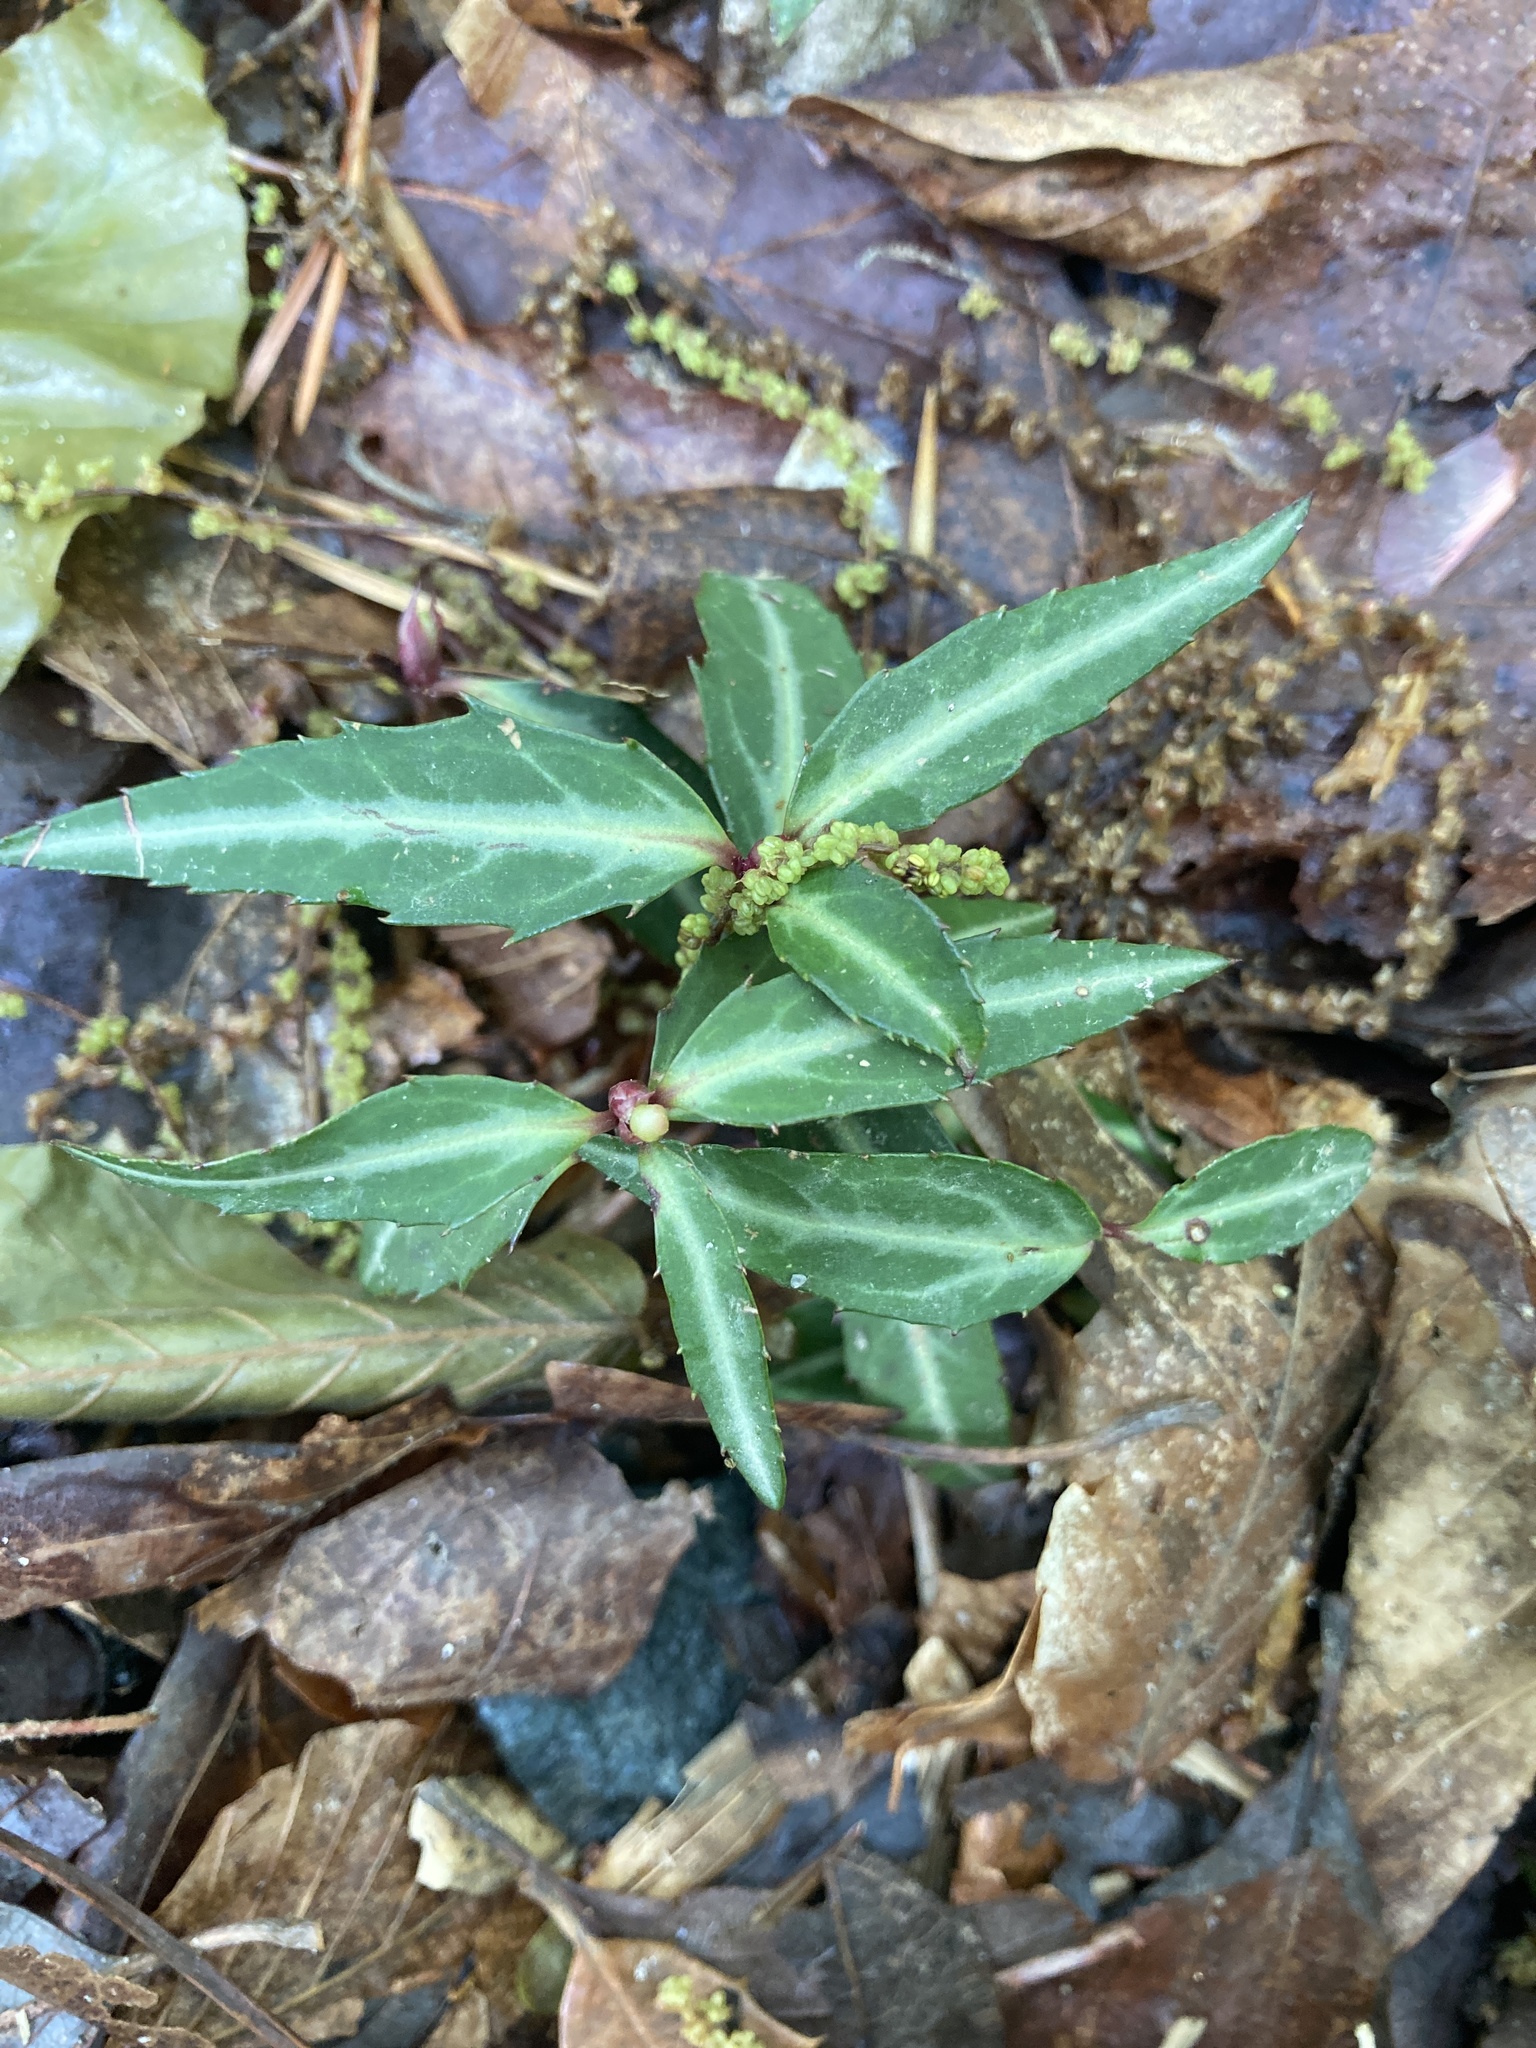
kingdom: Plantae
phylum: Tracheophyta
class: Magnoliopsida
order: Ericales
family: Ericaceae
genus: Chimaphila
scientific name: Chimaphila maculata
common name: Spotted pipsissewa
